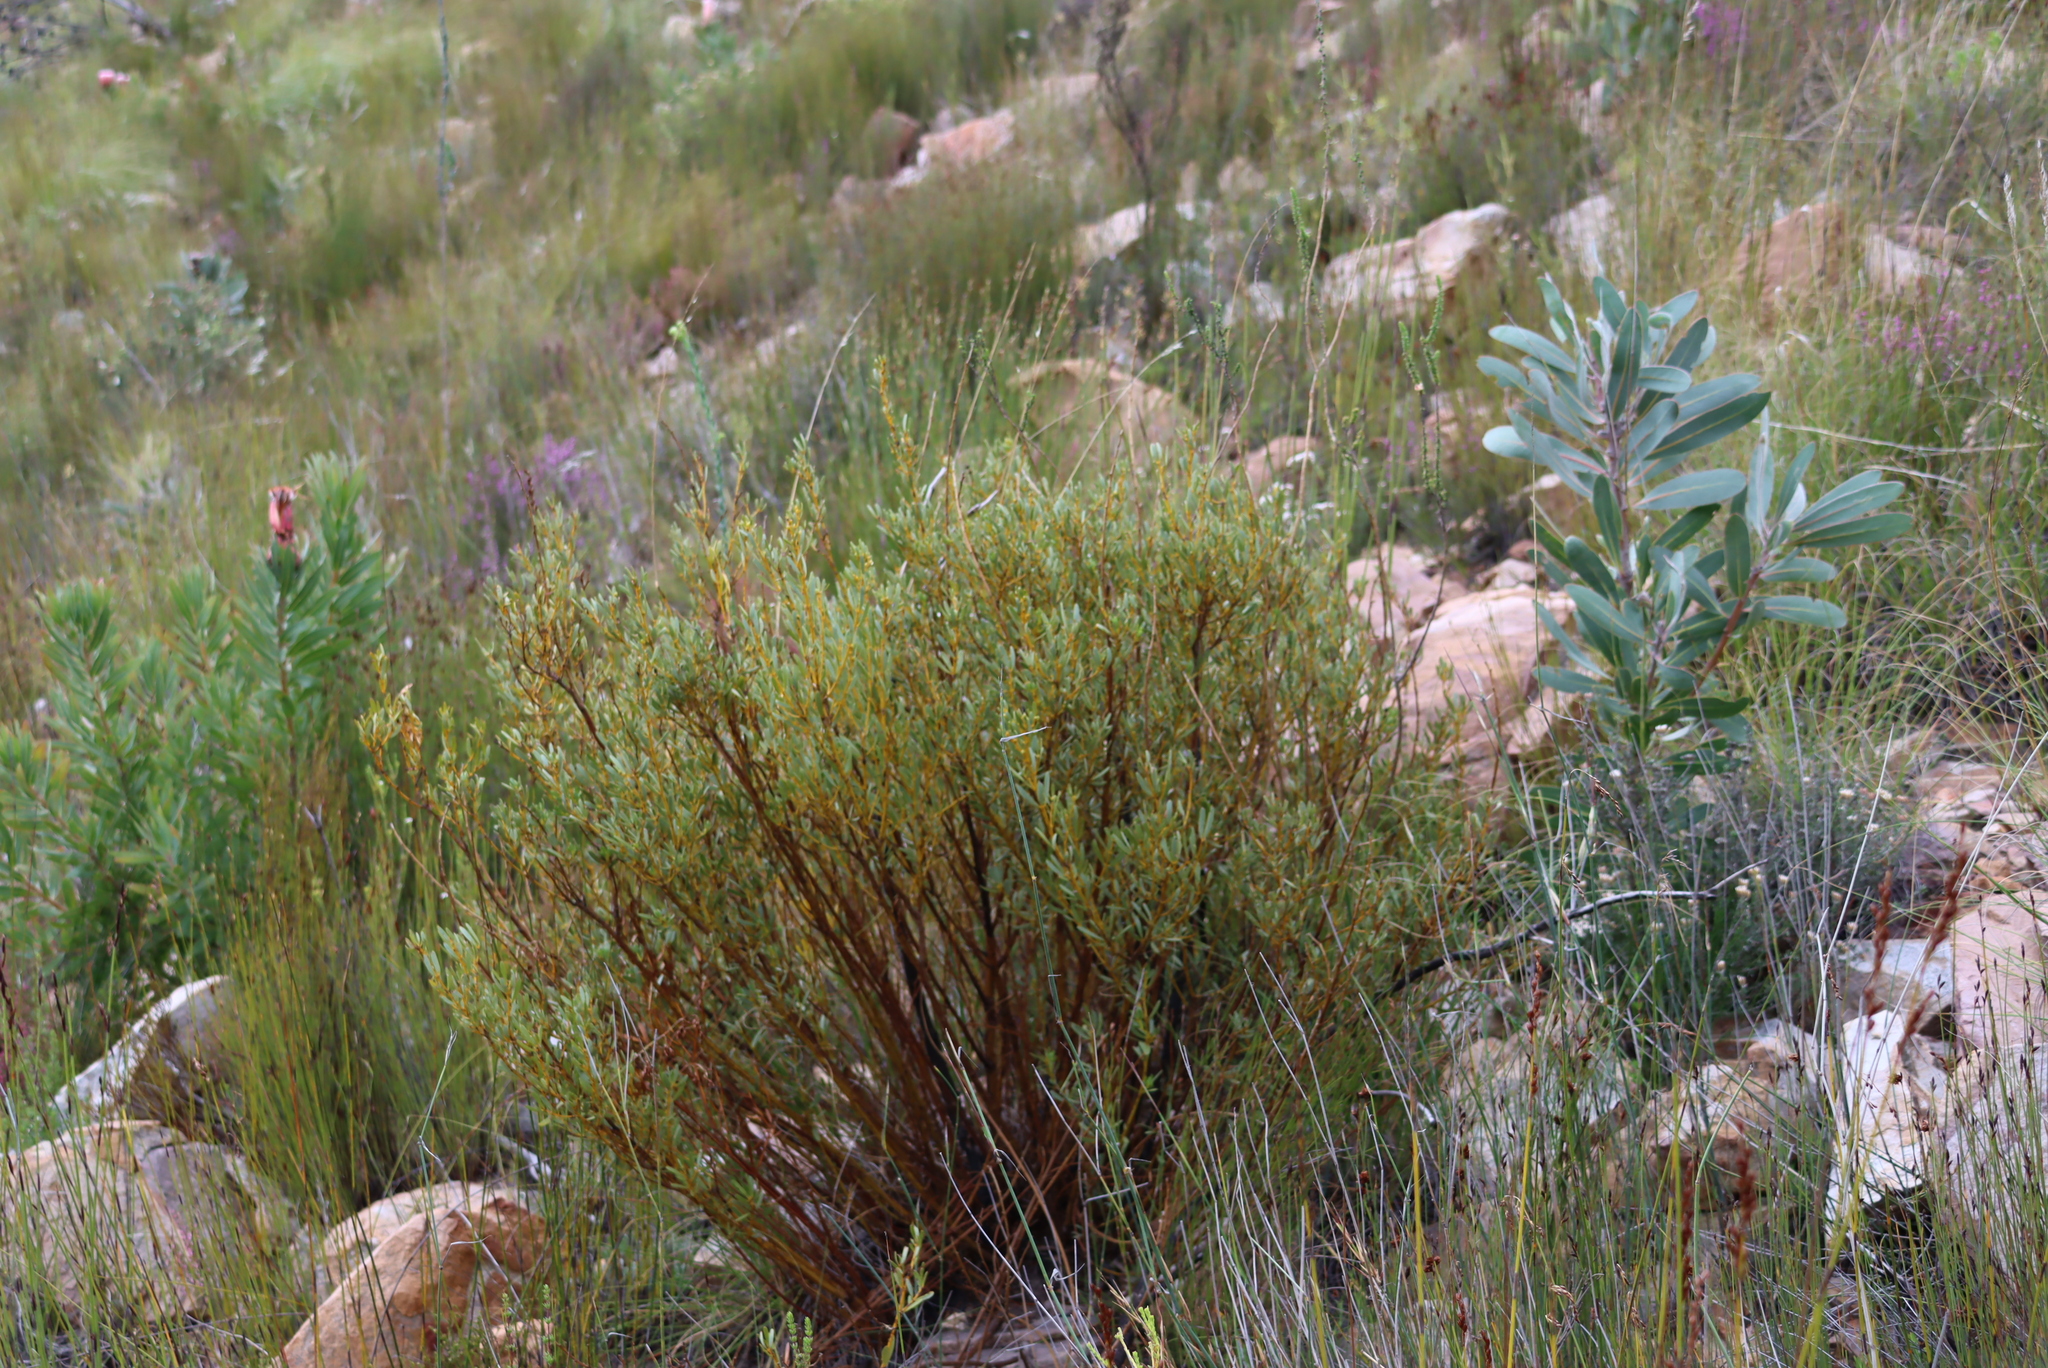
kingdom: Plantae
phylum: Tracheophyta
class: Magnoliopsida
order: Fabales
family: Fabaceae
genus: Cyclopia
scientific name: Cyclopia intermedia
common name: Mountain tea
